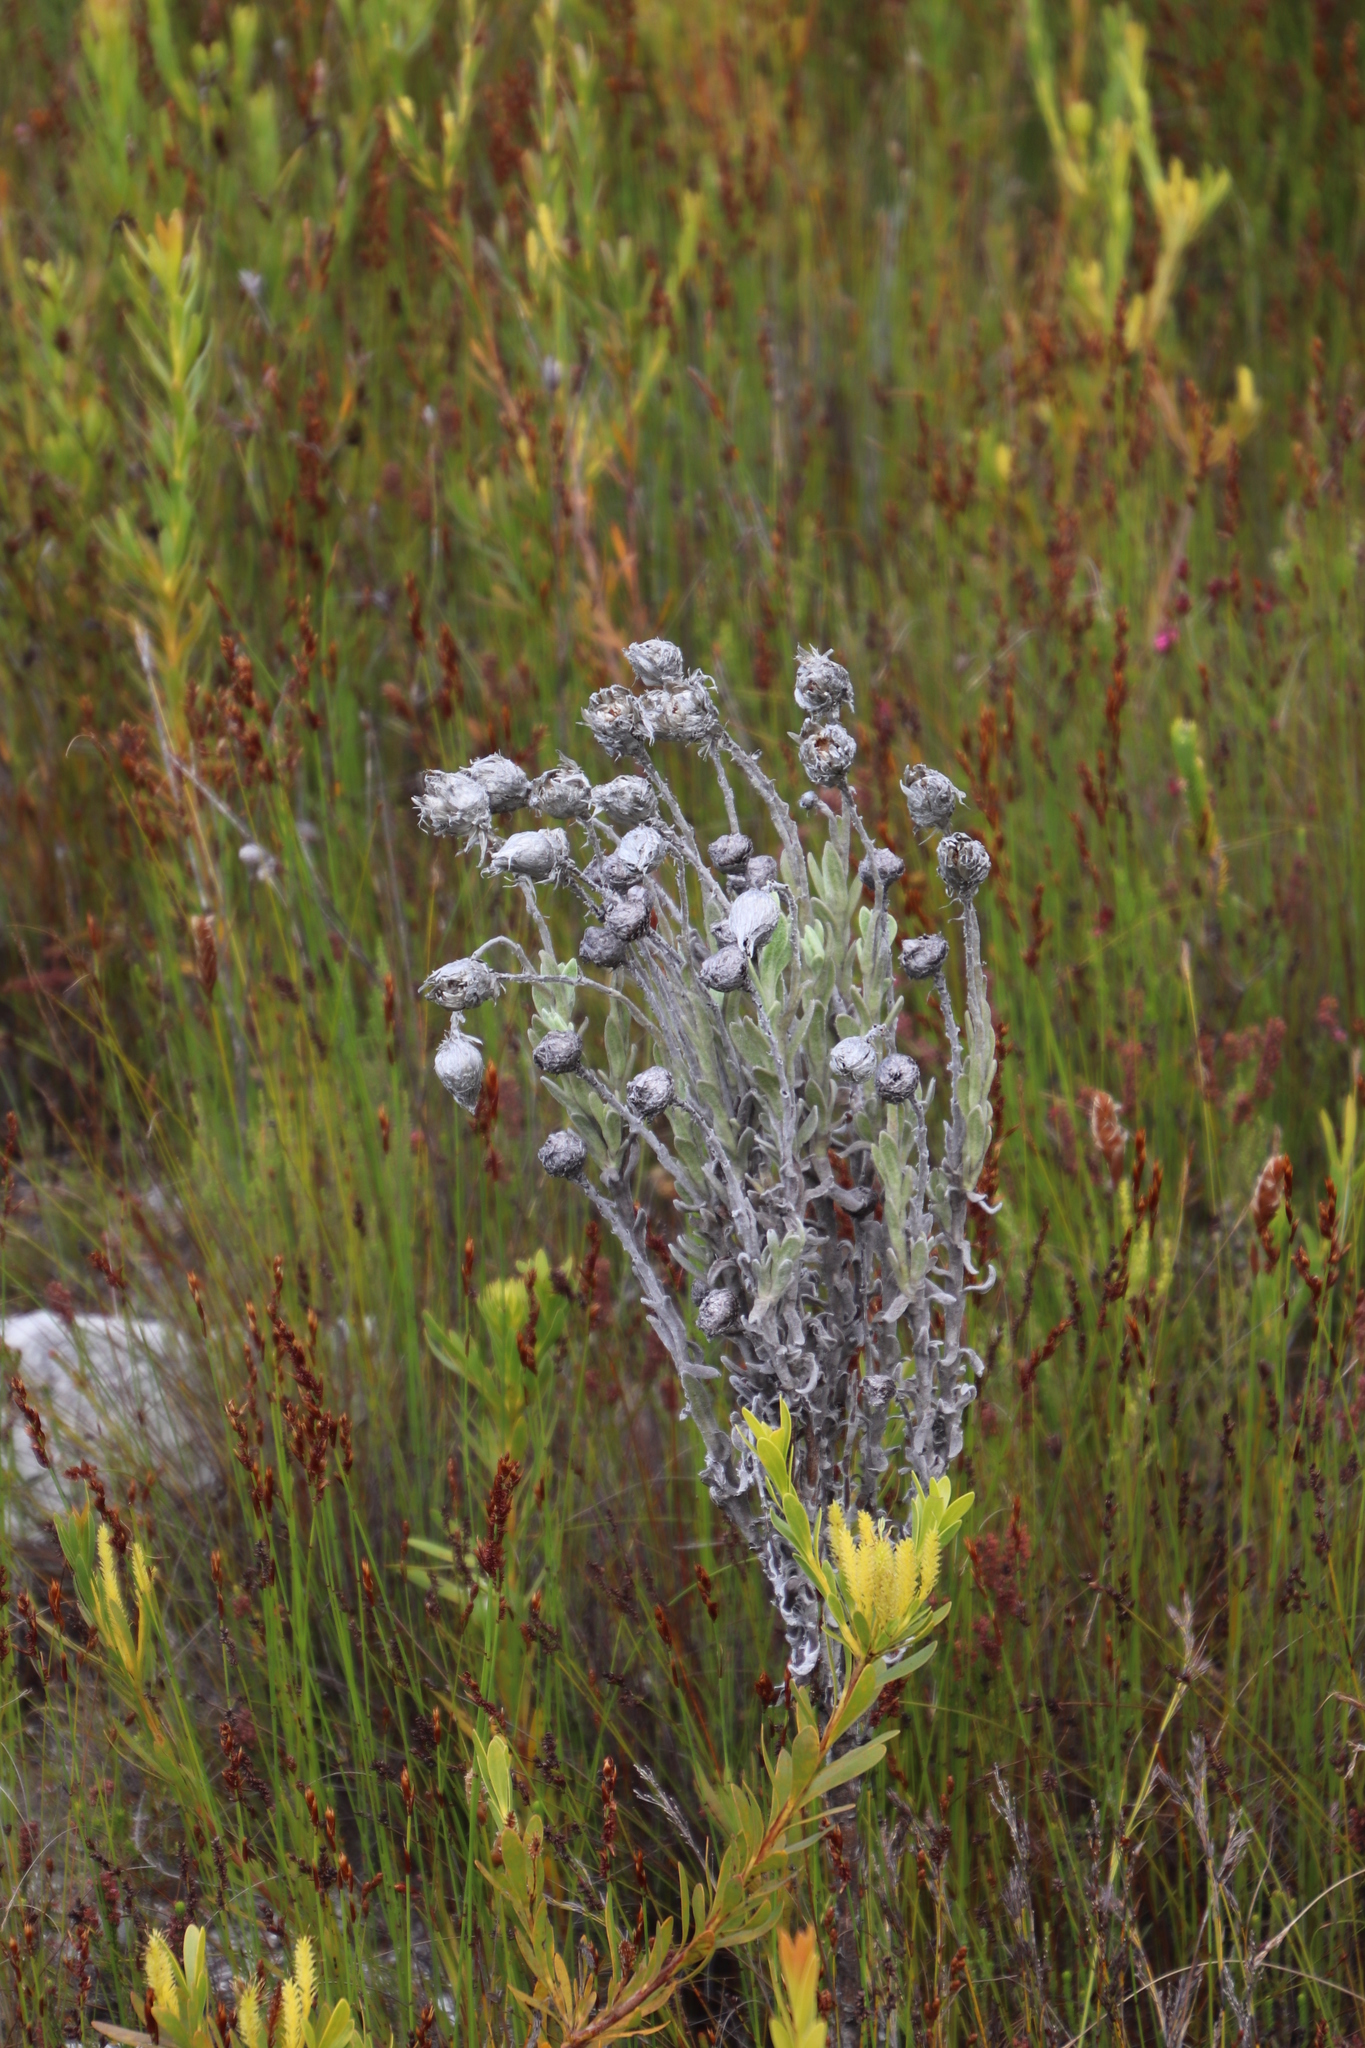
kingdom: Plantae
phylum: Tracheophyta
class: Magnoliopsida
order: Asterales
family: Asteraceae
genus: Syncarpha
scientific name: Syncarpha vestita
